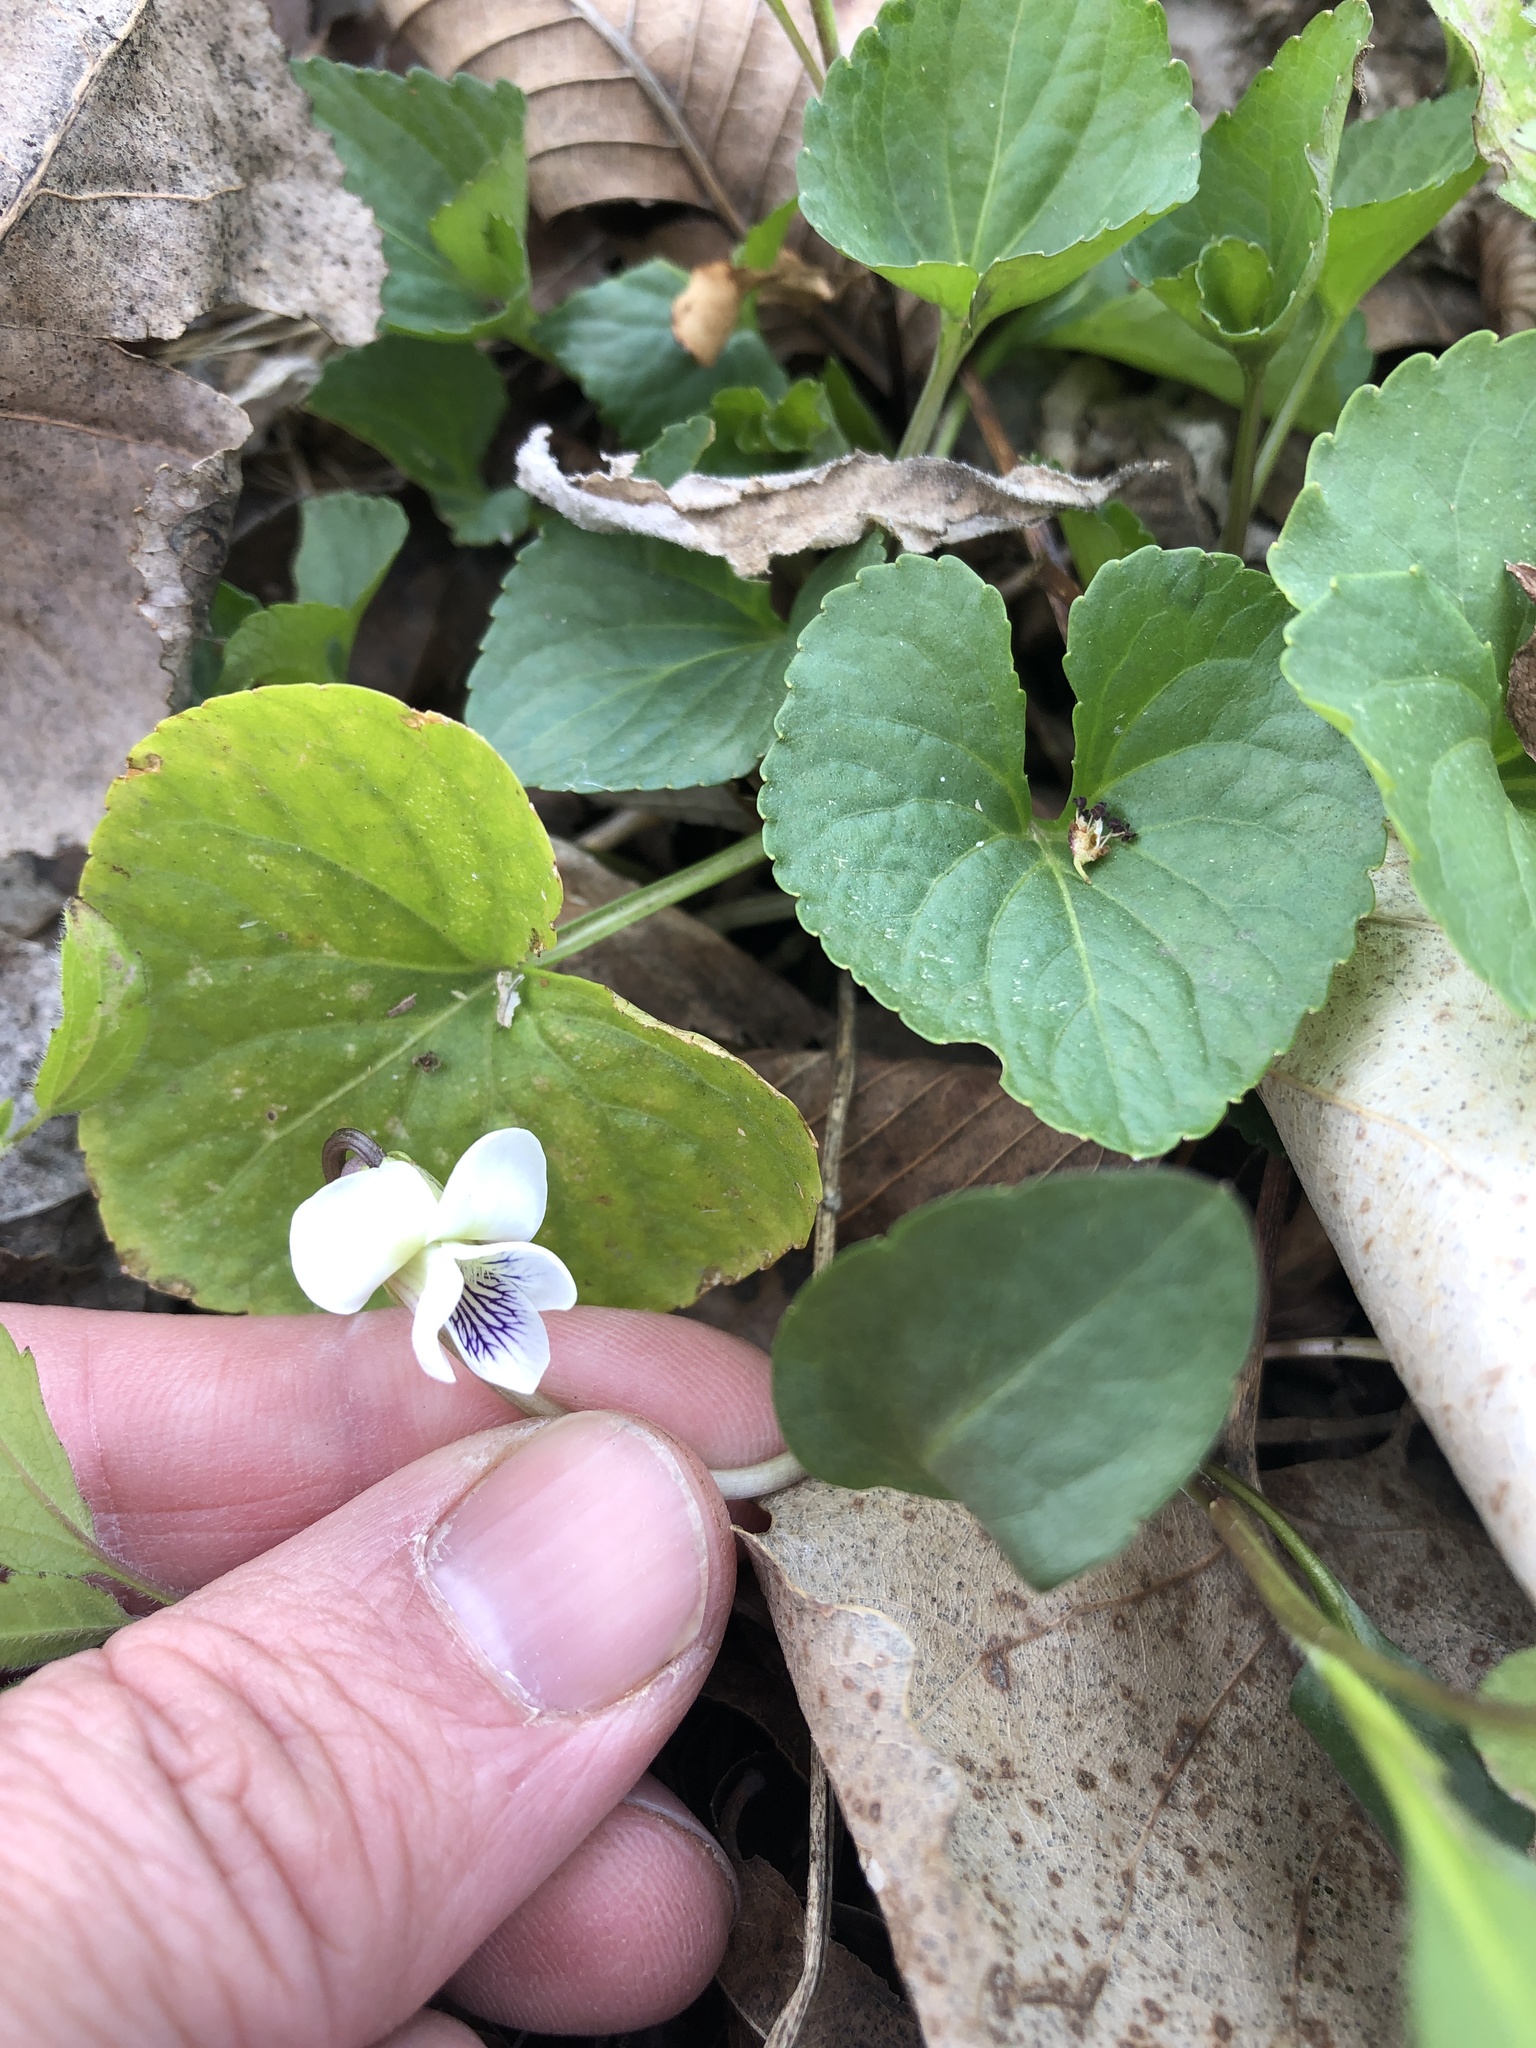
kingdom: Plantae
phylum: Tracheophyta
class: Magnoliopsida
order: Malpighiales
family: Violaceae
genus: Viola
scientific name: Viola sororia
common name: Dooryard violet
